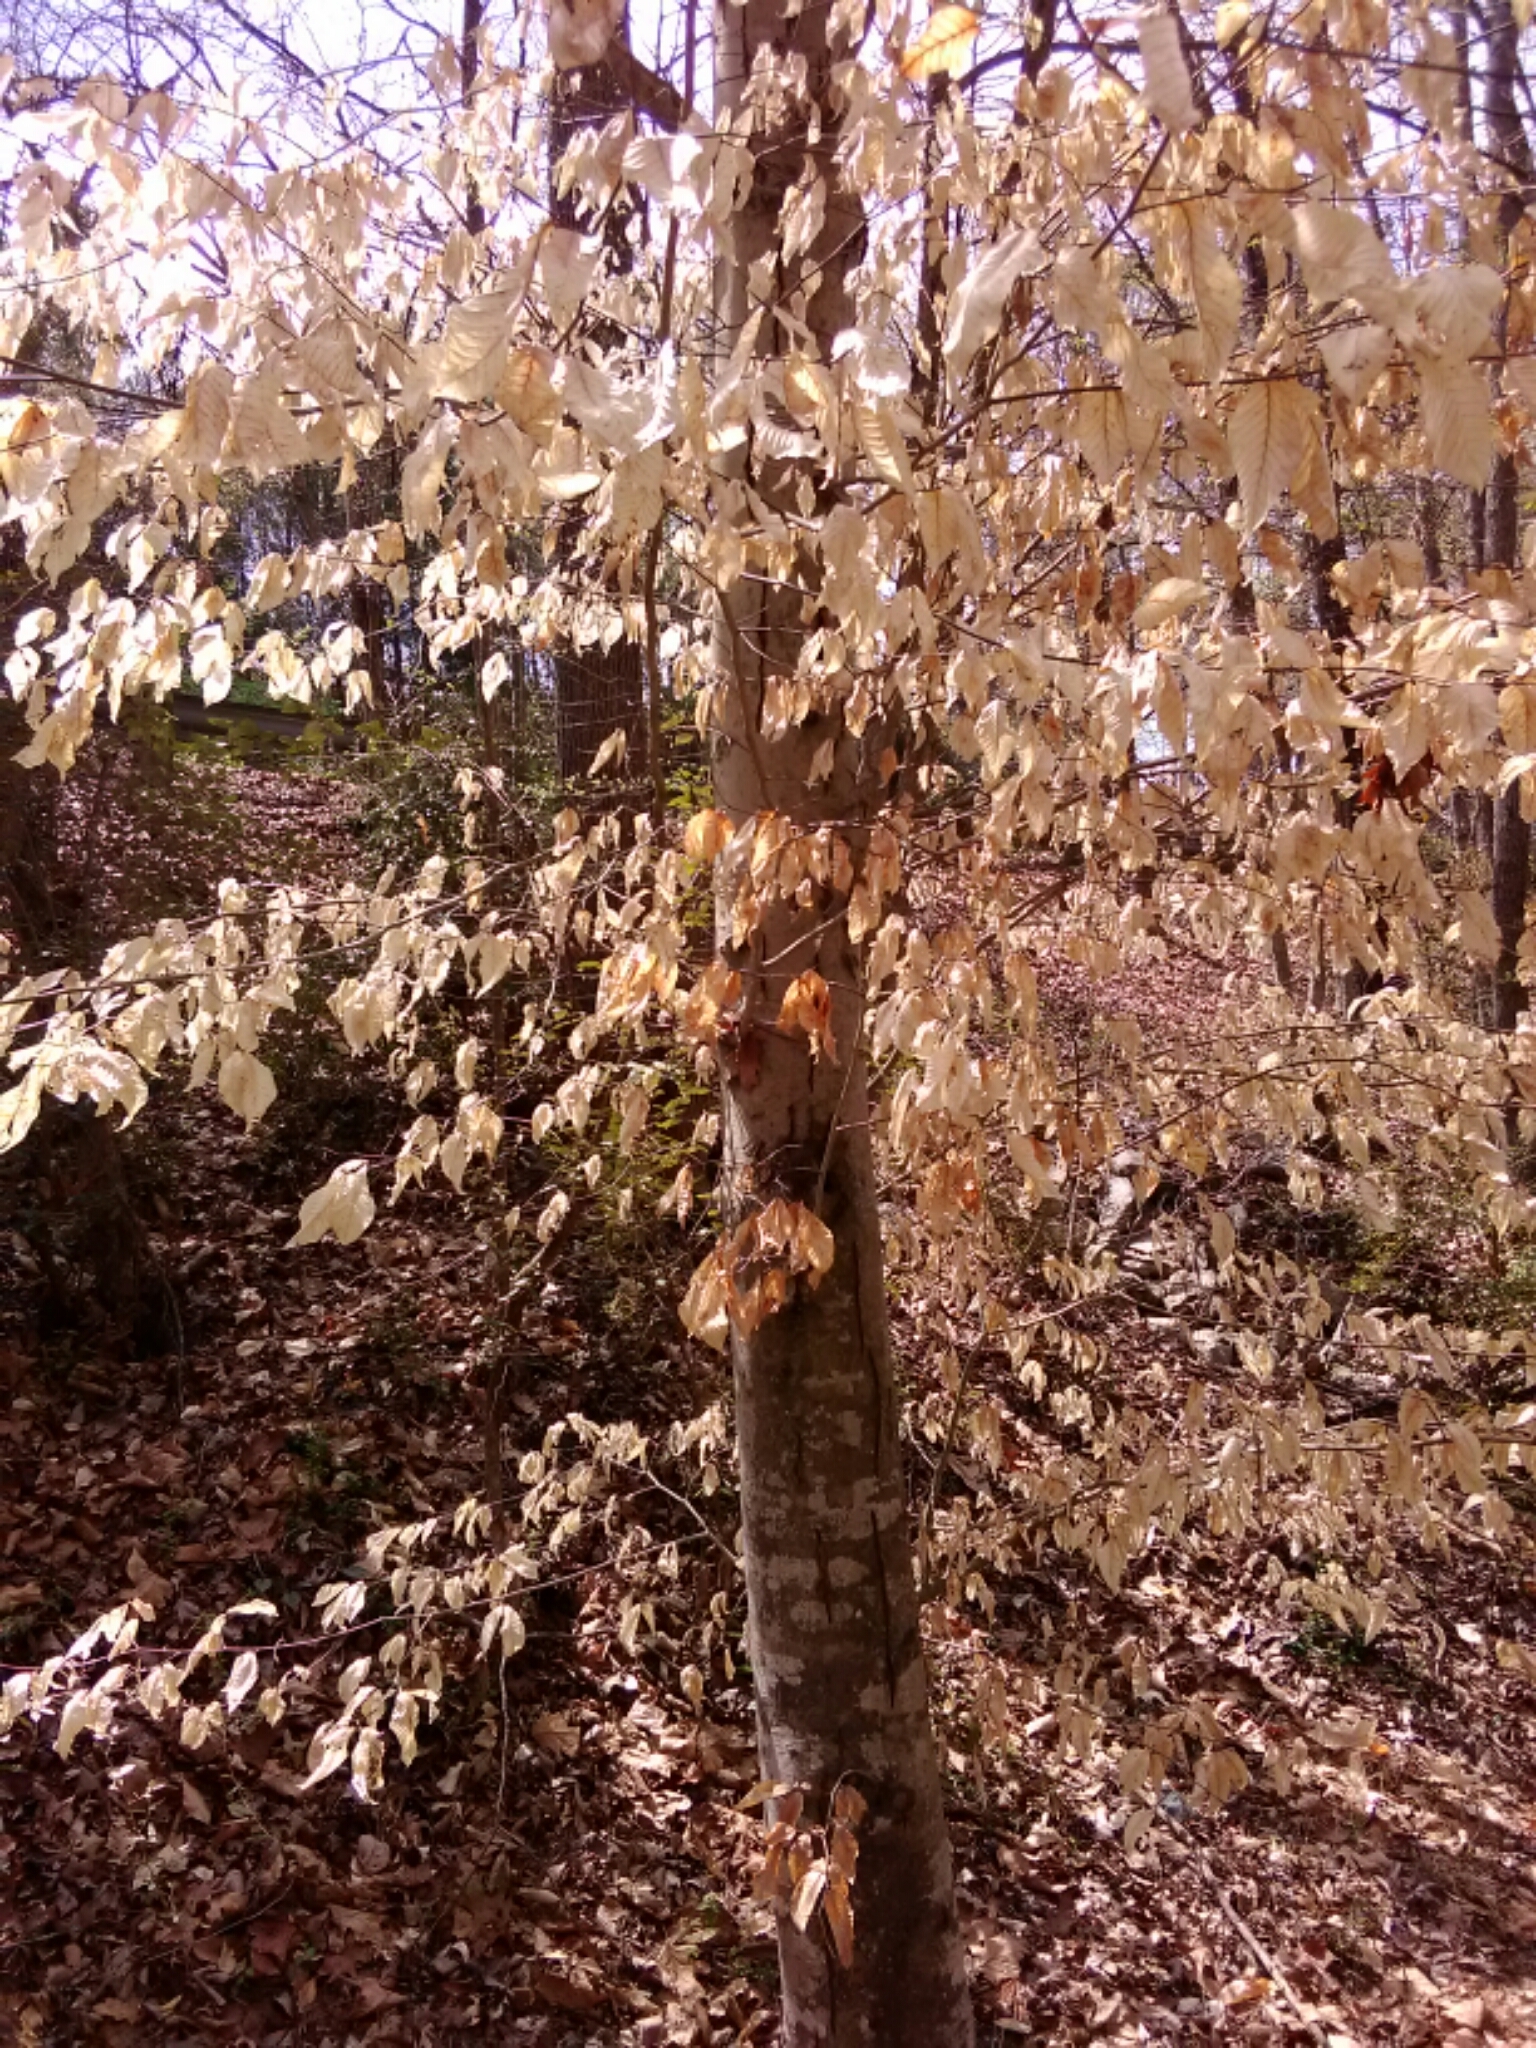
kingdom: Plantae
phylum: Tracheophyta
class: Magnoliopsida
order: Fagales
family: Fagaceae
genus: Fagus
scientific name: Fagus grandifolia
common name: American beech
